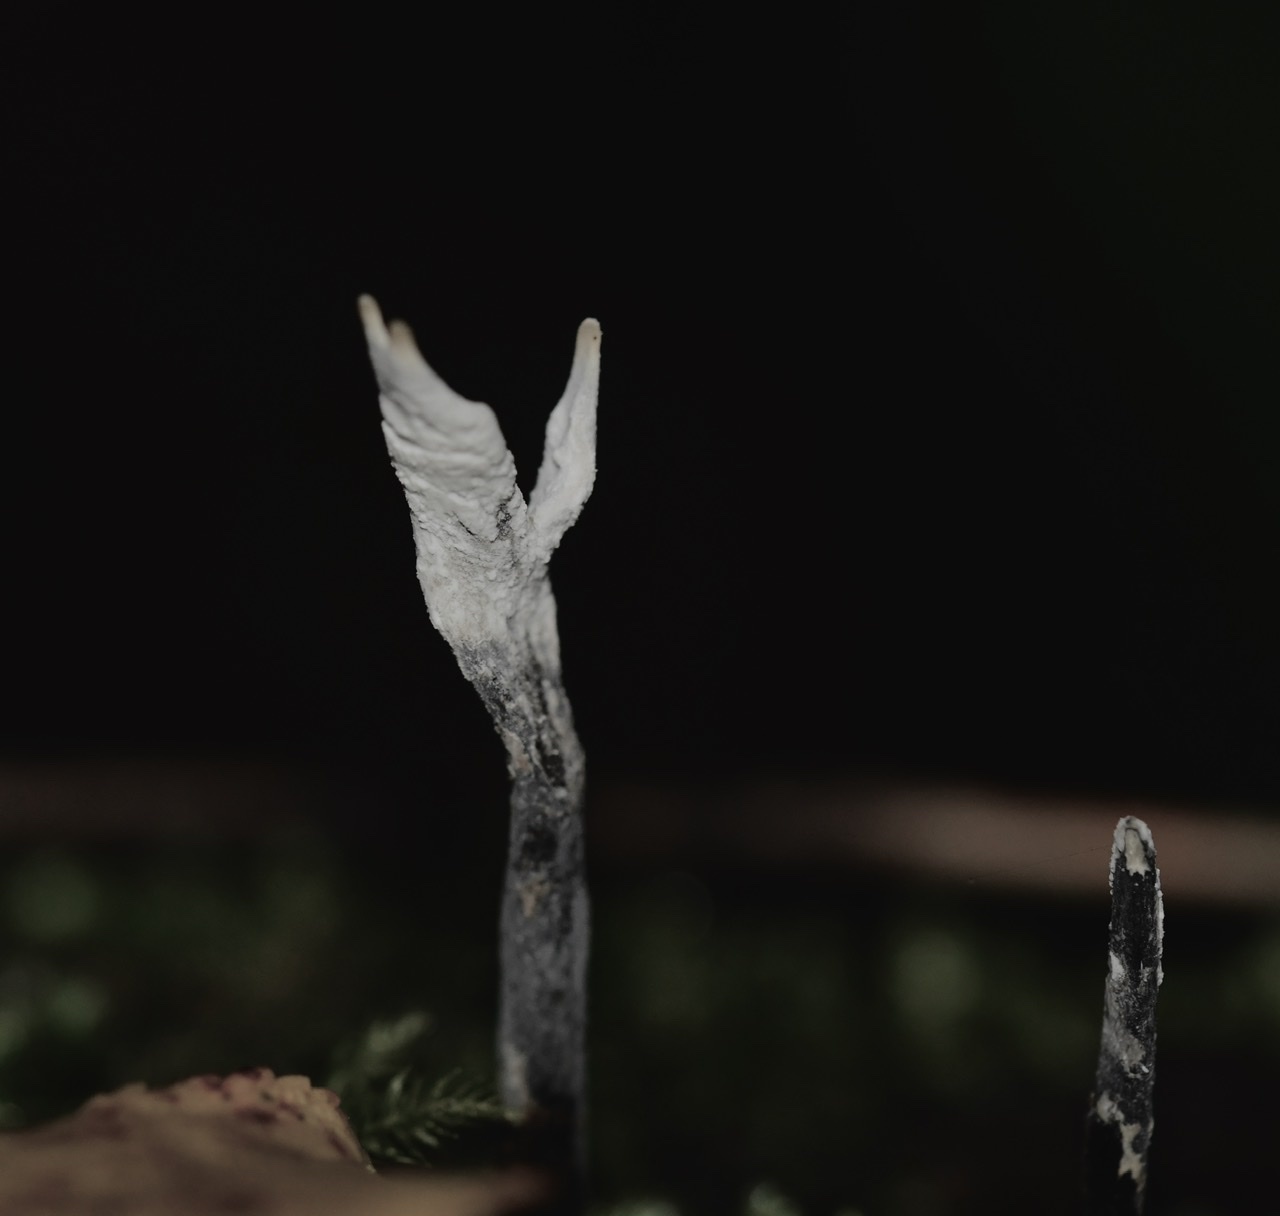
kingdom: Fungi
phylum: Ascomycota
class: Sordariomycetes
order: Xylariales
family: Xylariaceae
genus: Xylaria
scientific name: Xylaria hypoxylon
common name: Candle-snuff fungus
